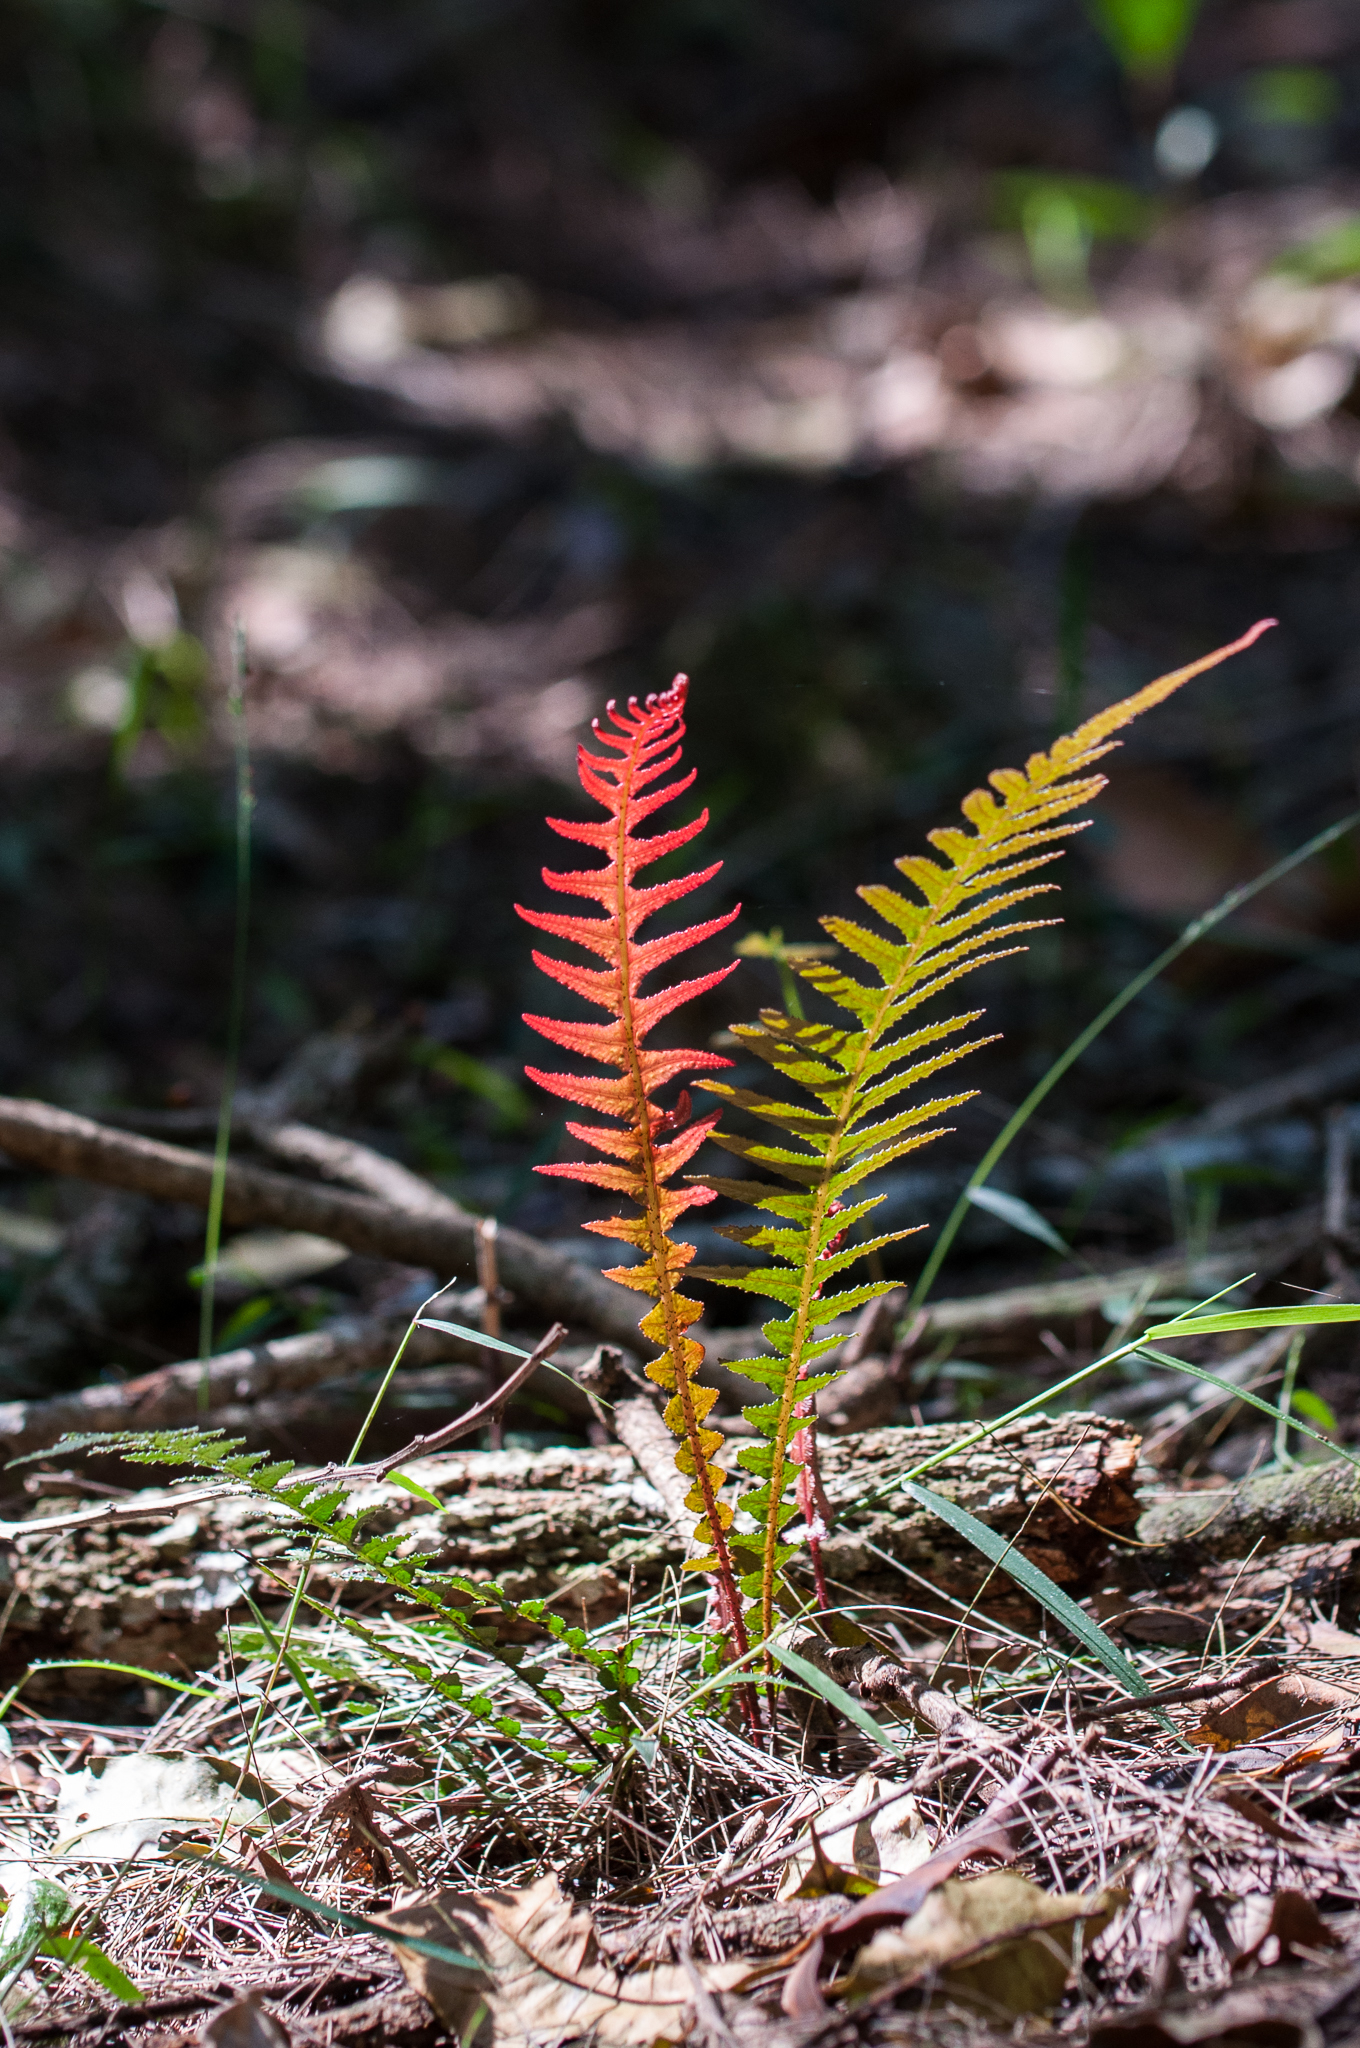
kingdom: Plantae
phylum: Tracheophyta
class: Polypodiopsida
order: Polypodiales
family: Blechnaceae
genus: Doodia
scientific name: Doodia aspera
